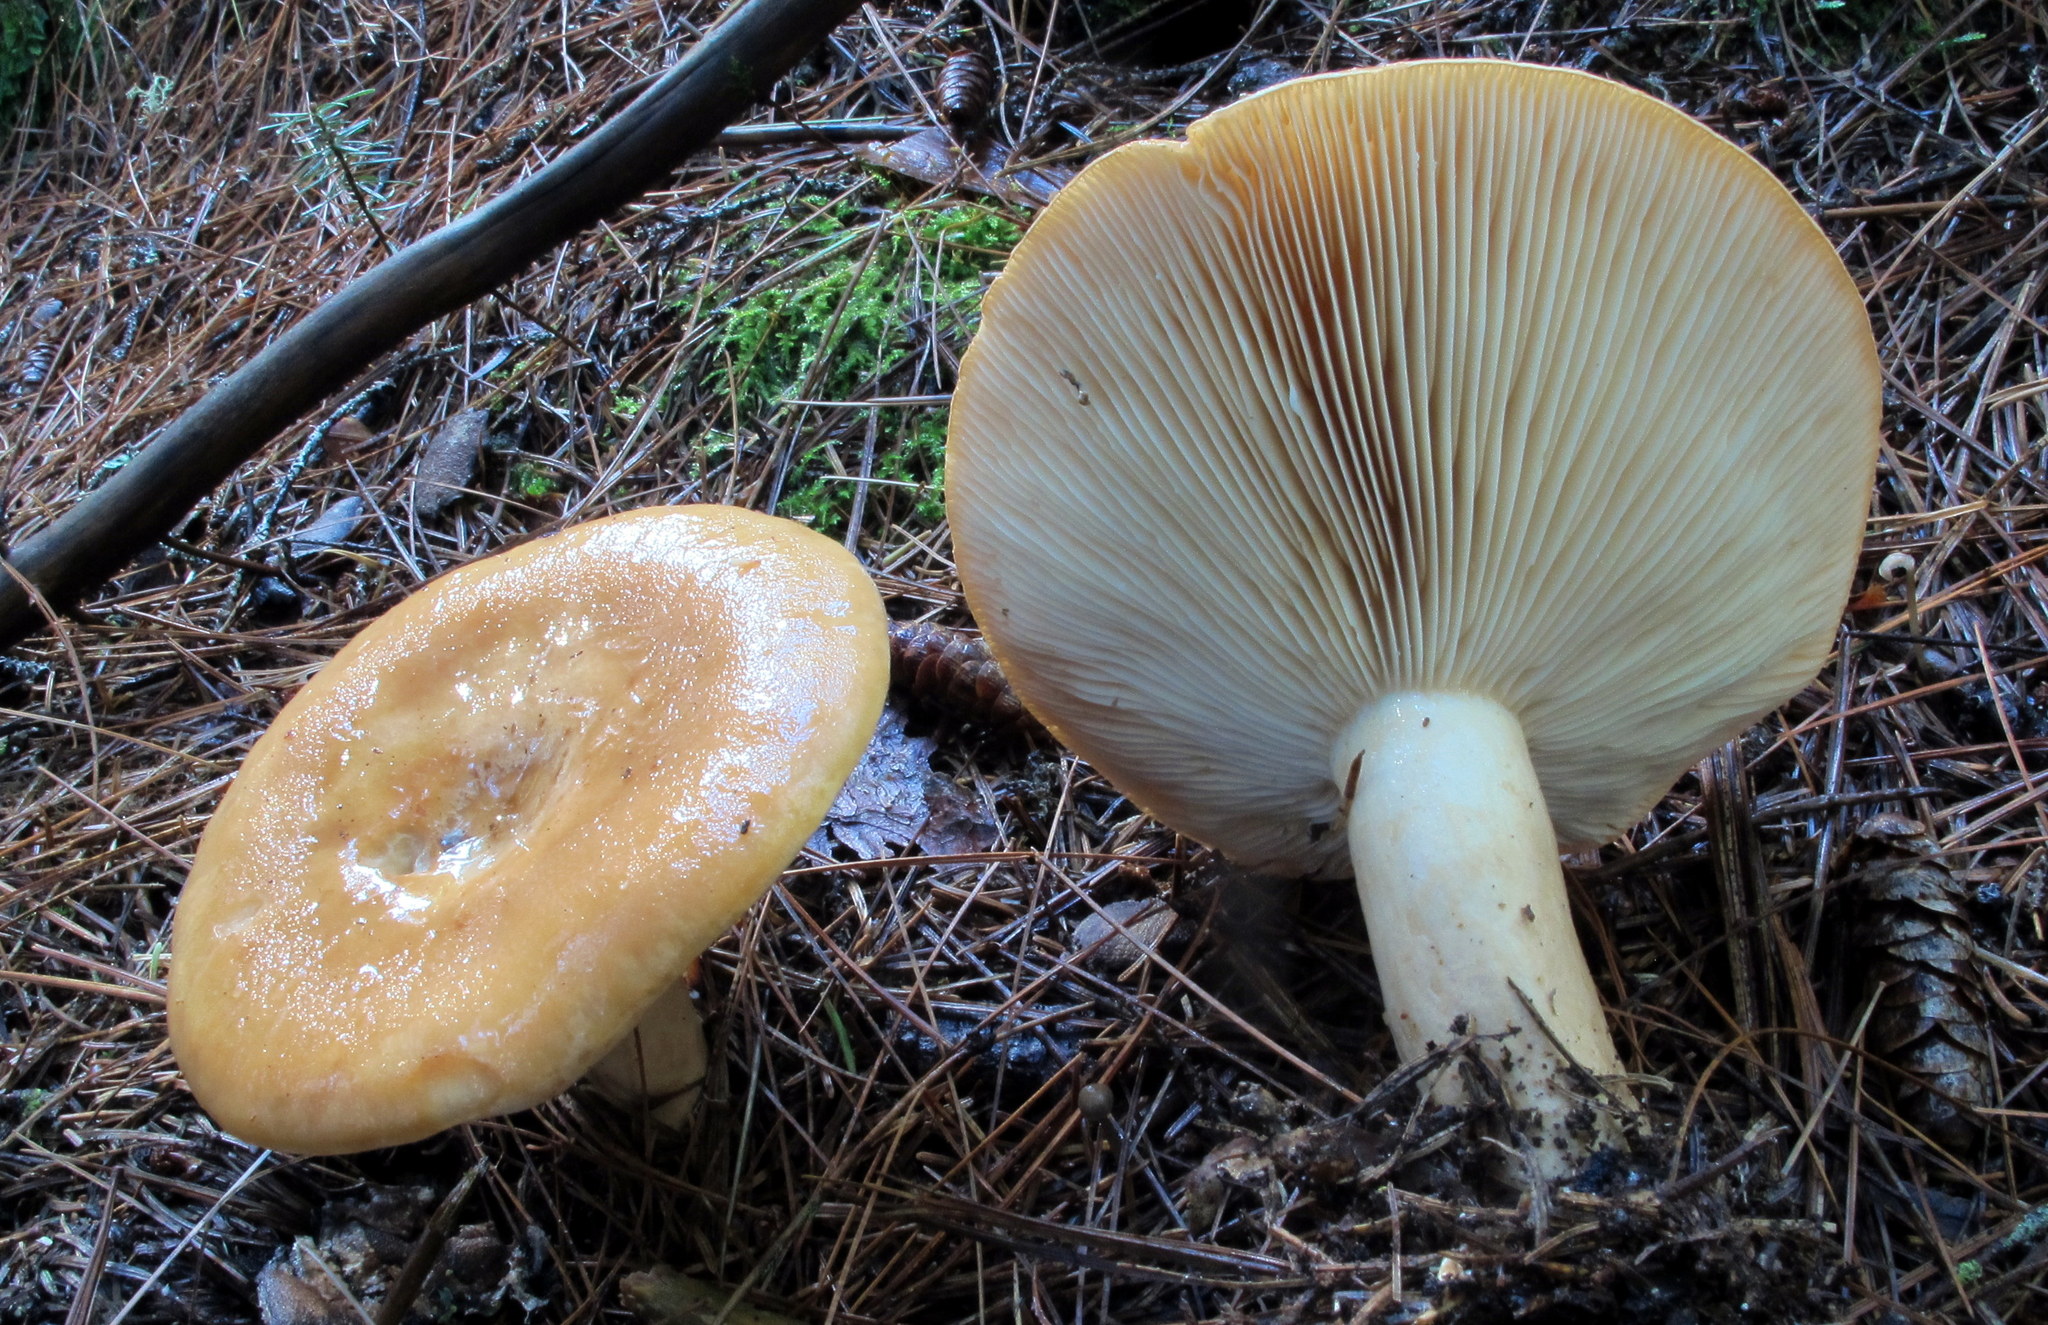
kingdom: Fungi
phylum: Basidiomycota
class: Agaricomycetes
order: Russulales
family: Russulaceae
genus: Lactarius
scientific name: Lactarius affinis
